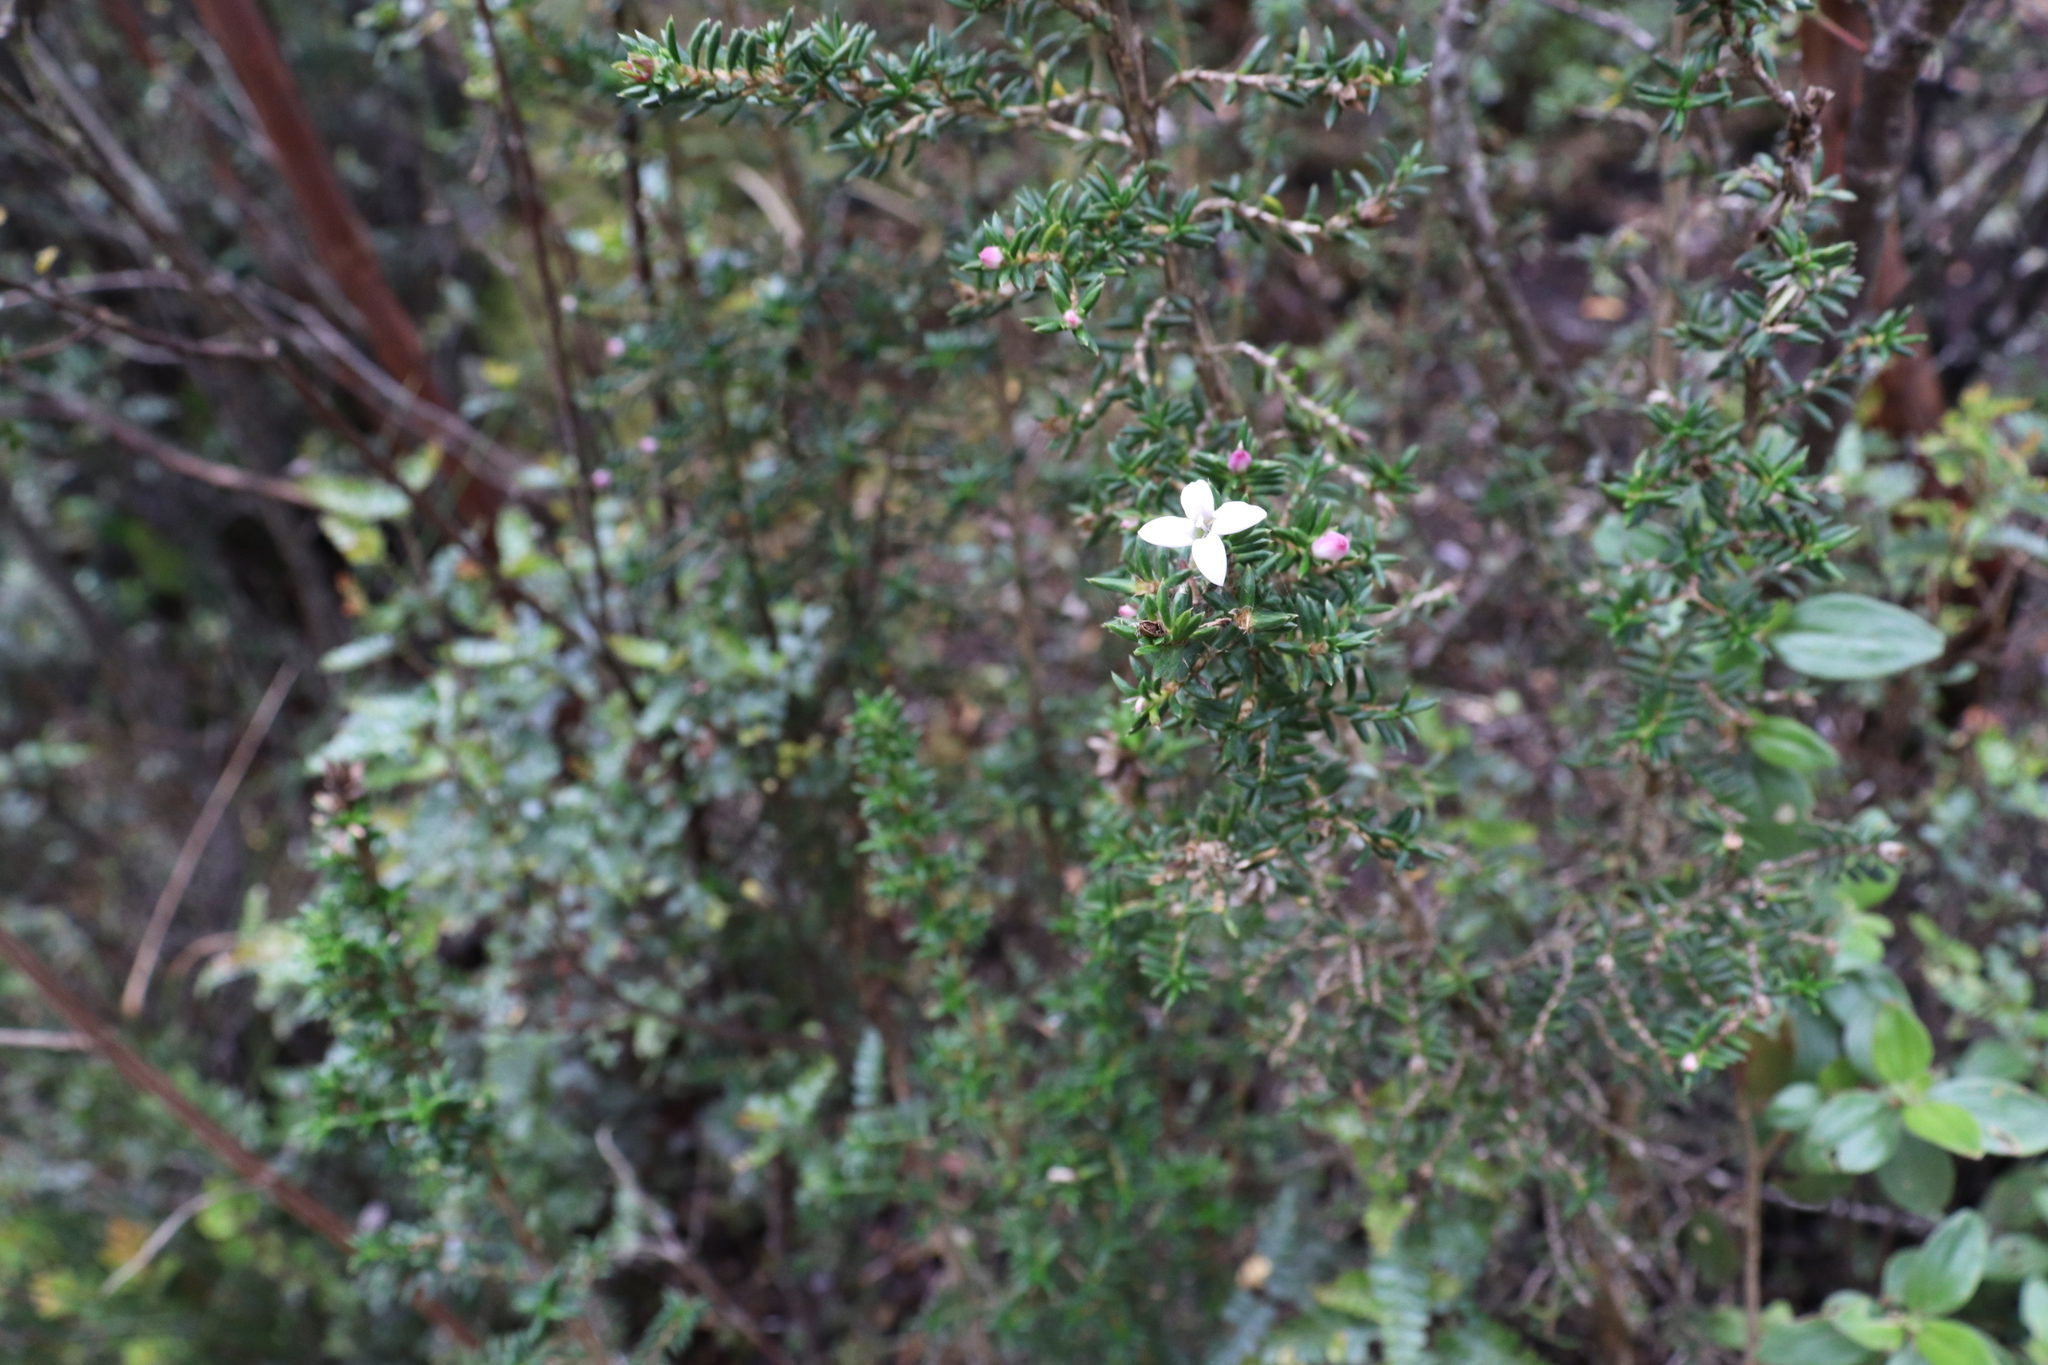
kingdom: Plantae
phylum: Tracheophyta
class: Magnoliopsida
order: Gentianales
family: Rubiaceae
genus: Arcytophyllum
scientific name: Arcytophyllum nitidum
